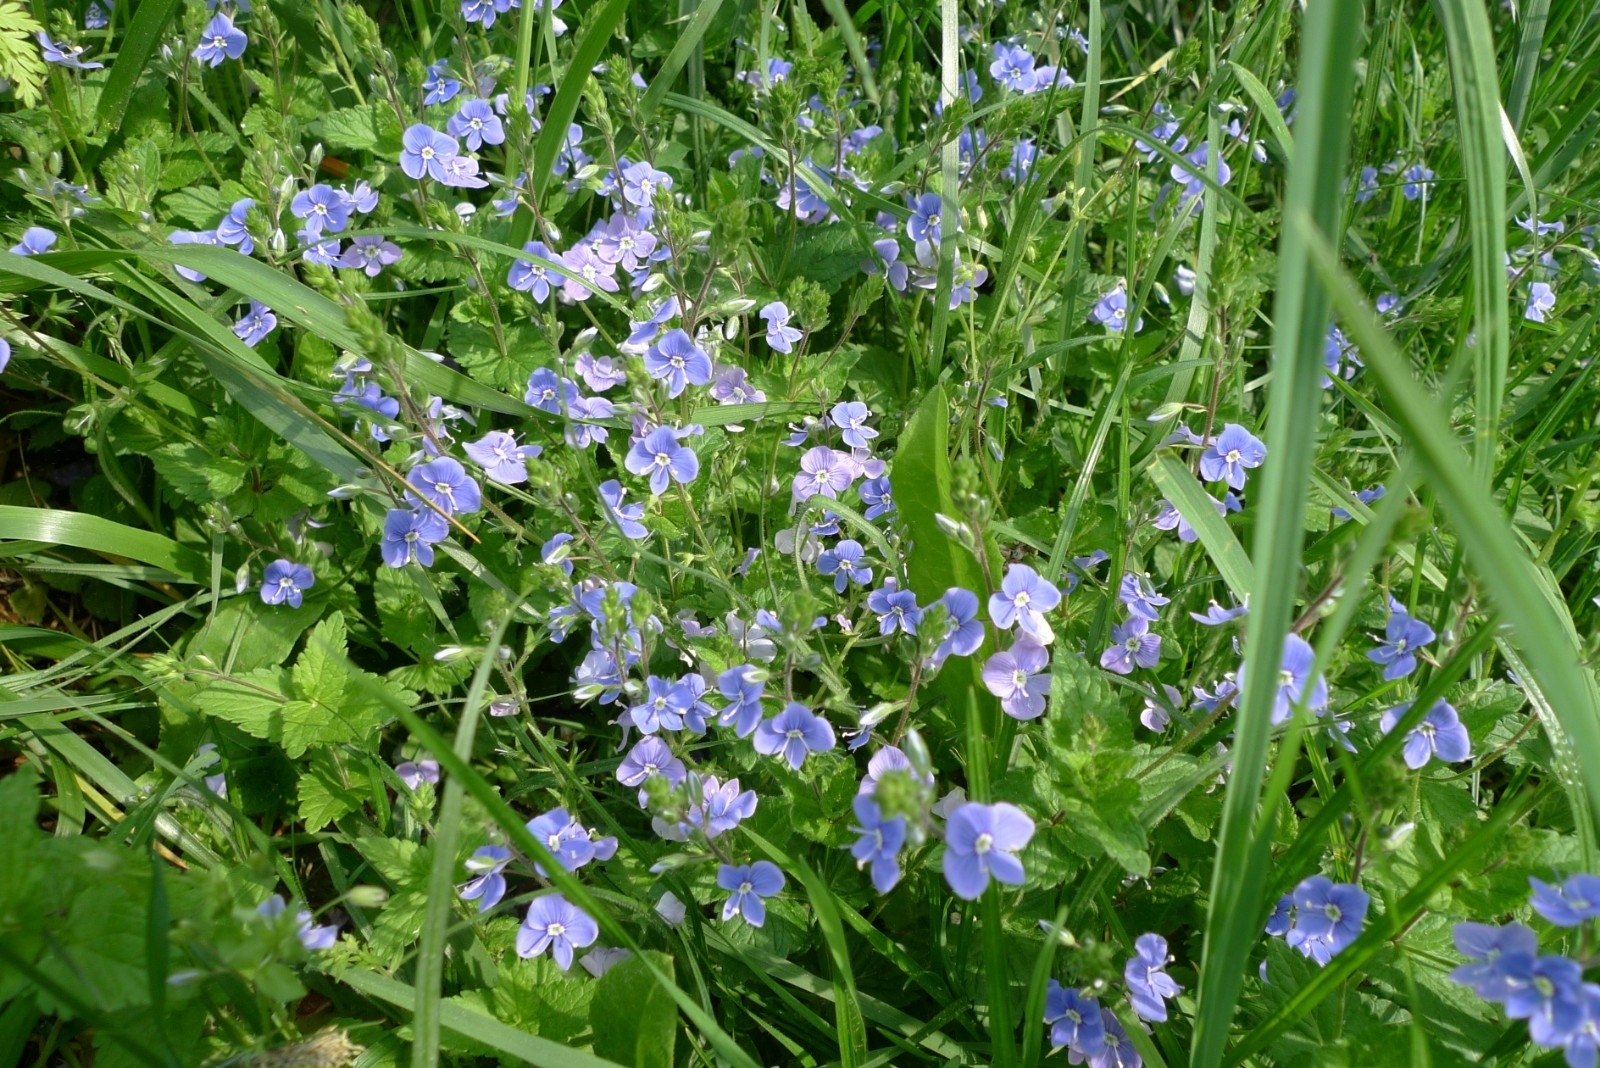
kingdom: Plantae
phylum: Tracheophyta
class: Magnoliopsida
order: Lamiales
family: Plantaginaceae
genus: Veronica
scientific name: Veronica chamaedrys
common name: Germander speedwell
